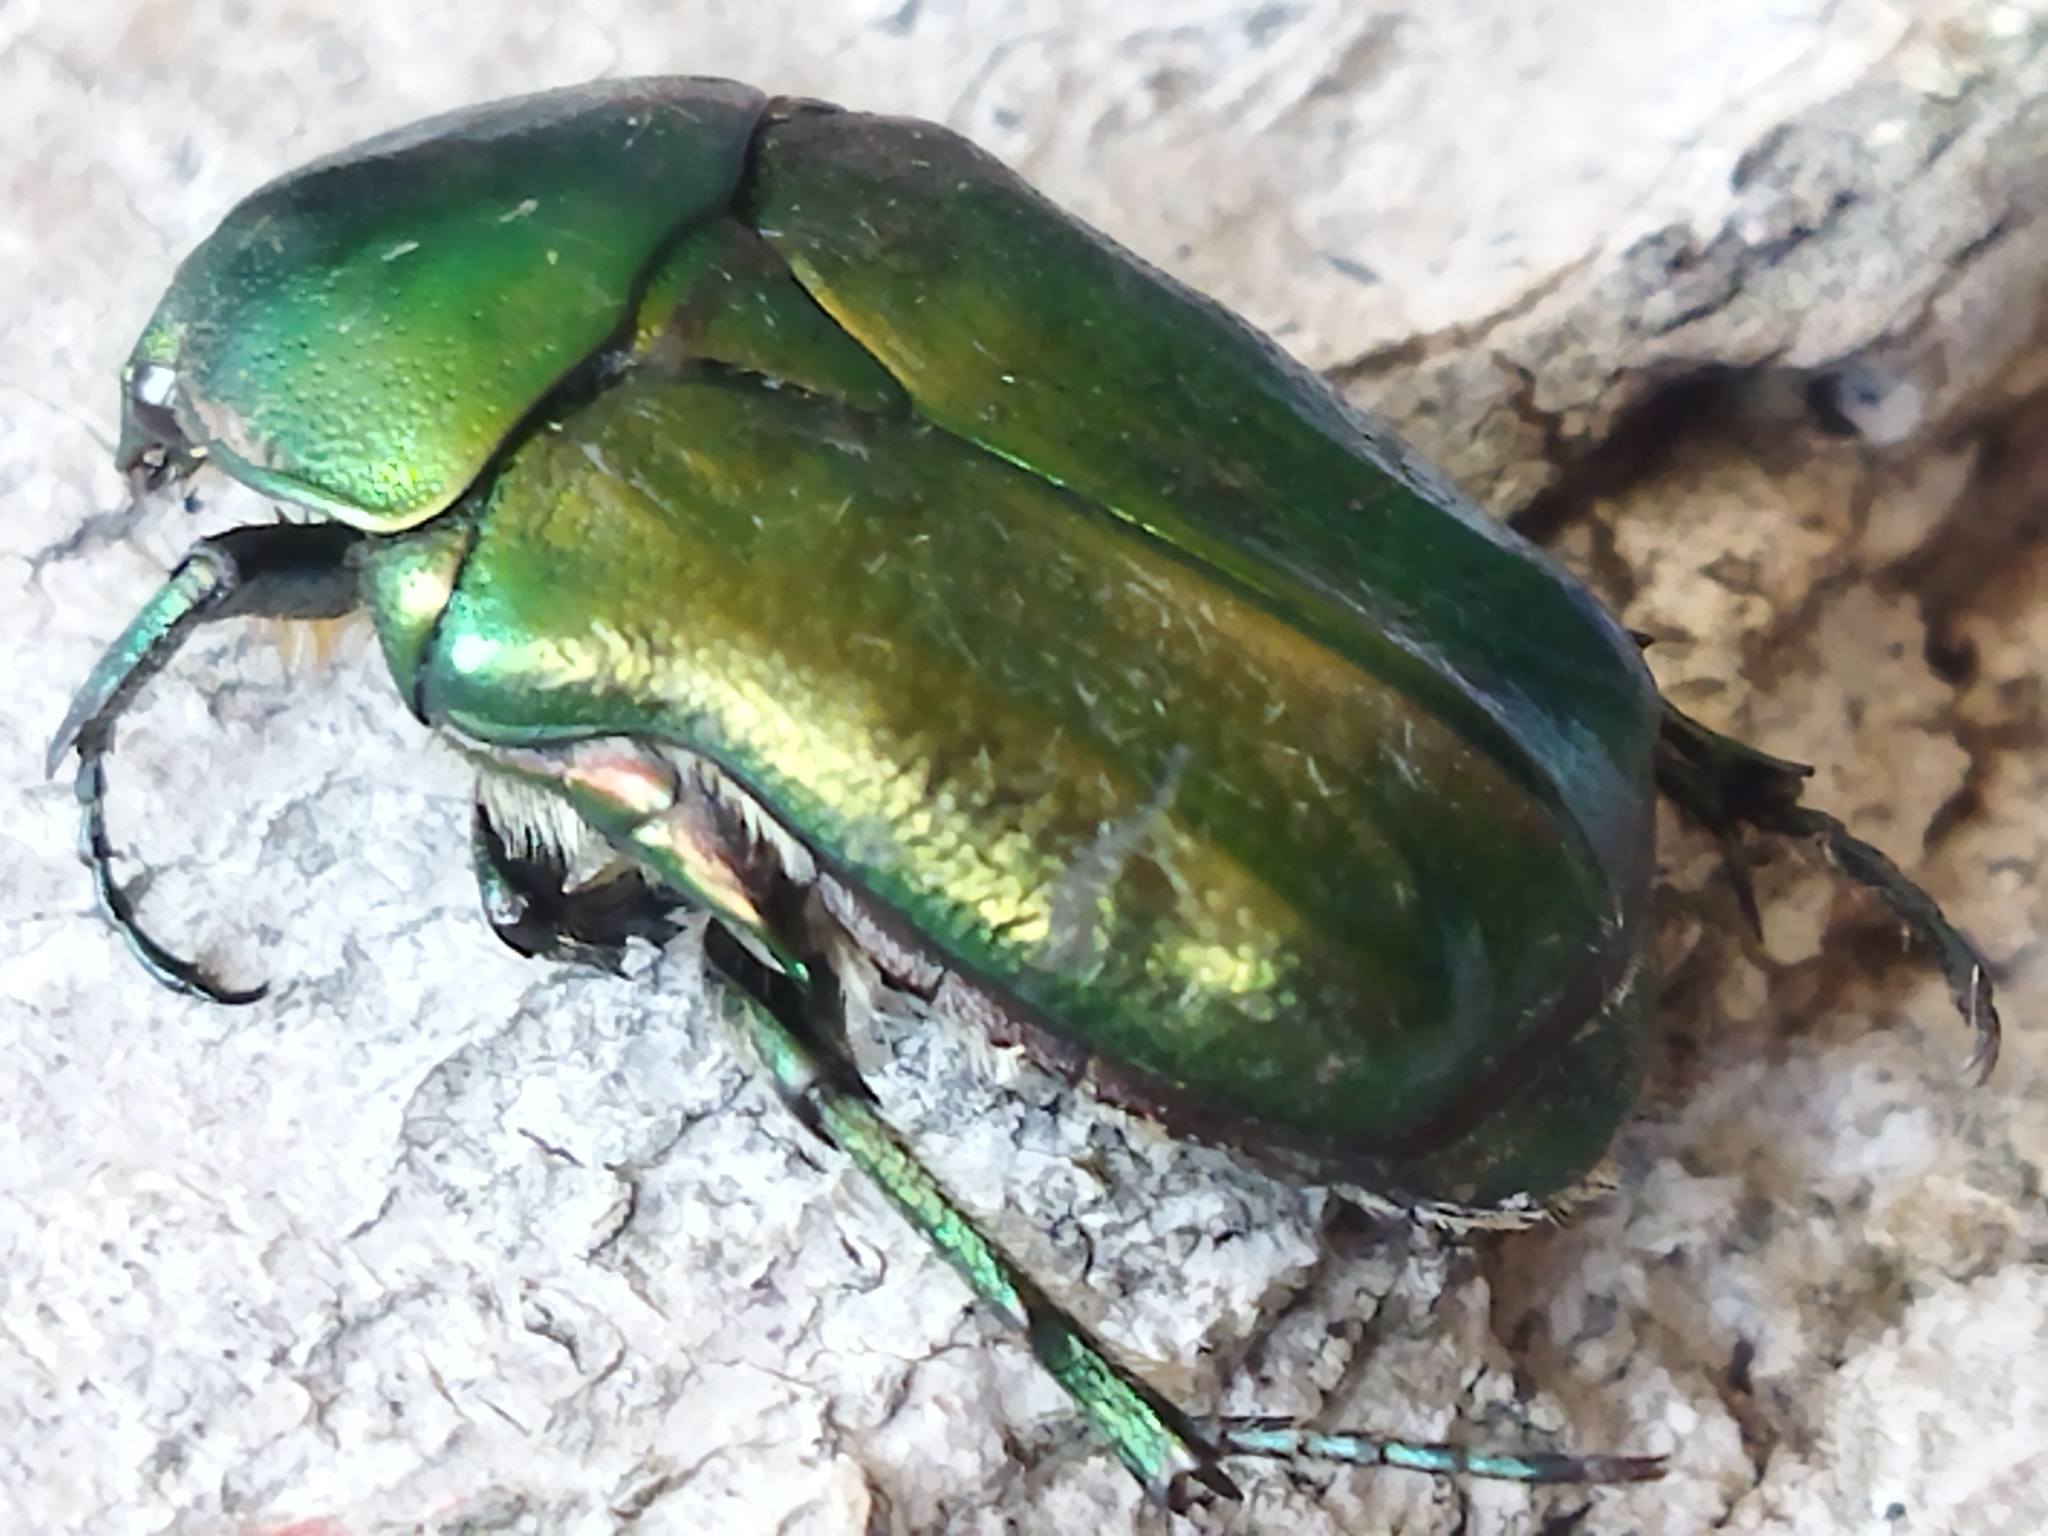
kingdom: Animalia
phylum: Arthropoda
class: Insecta
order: Coleoptera
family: Scarabaeidae
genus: Cetonia
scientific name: Cetonia aurata
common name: Rose chafer
